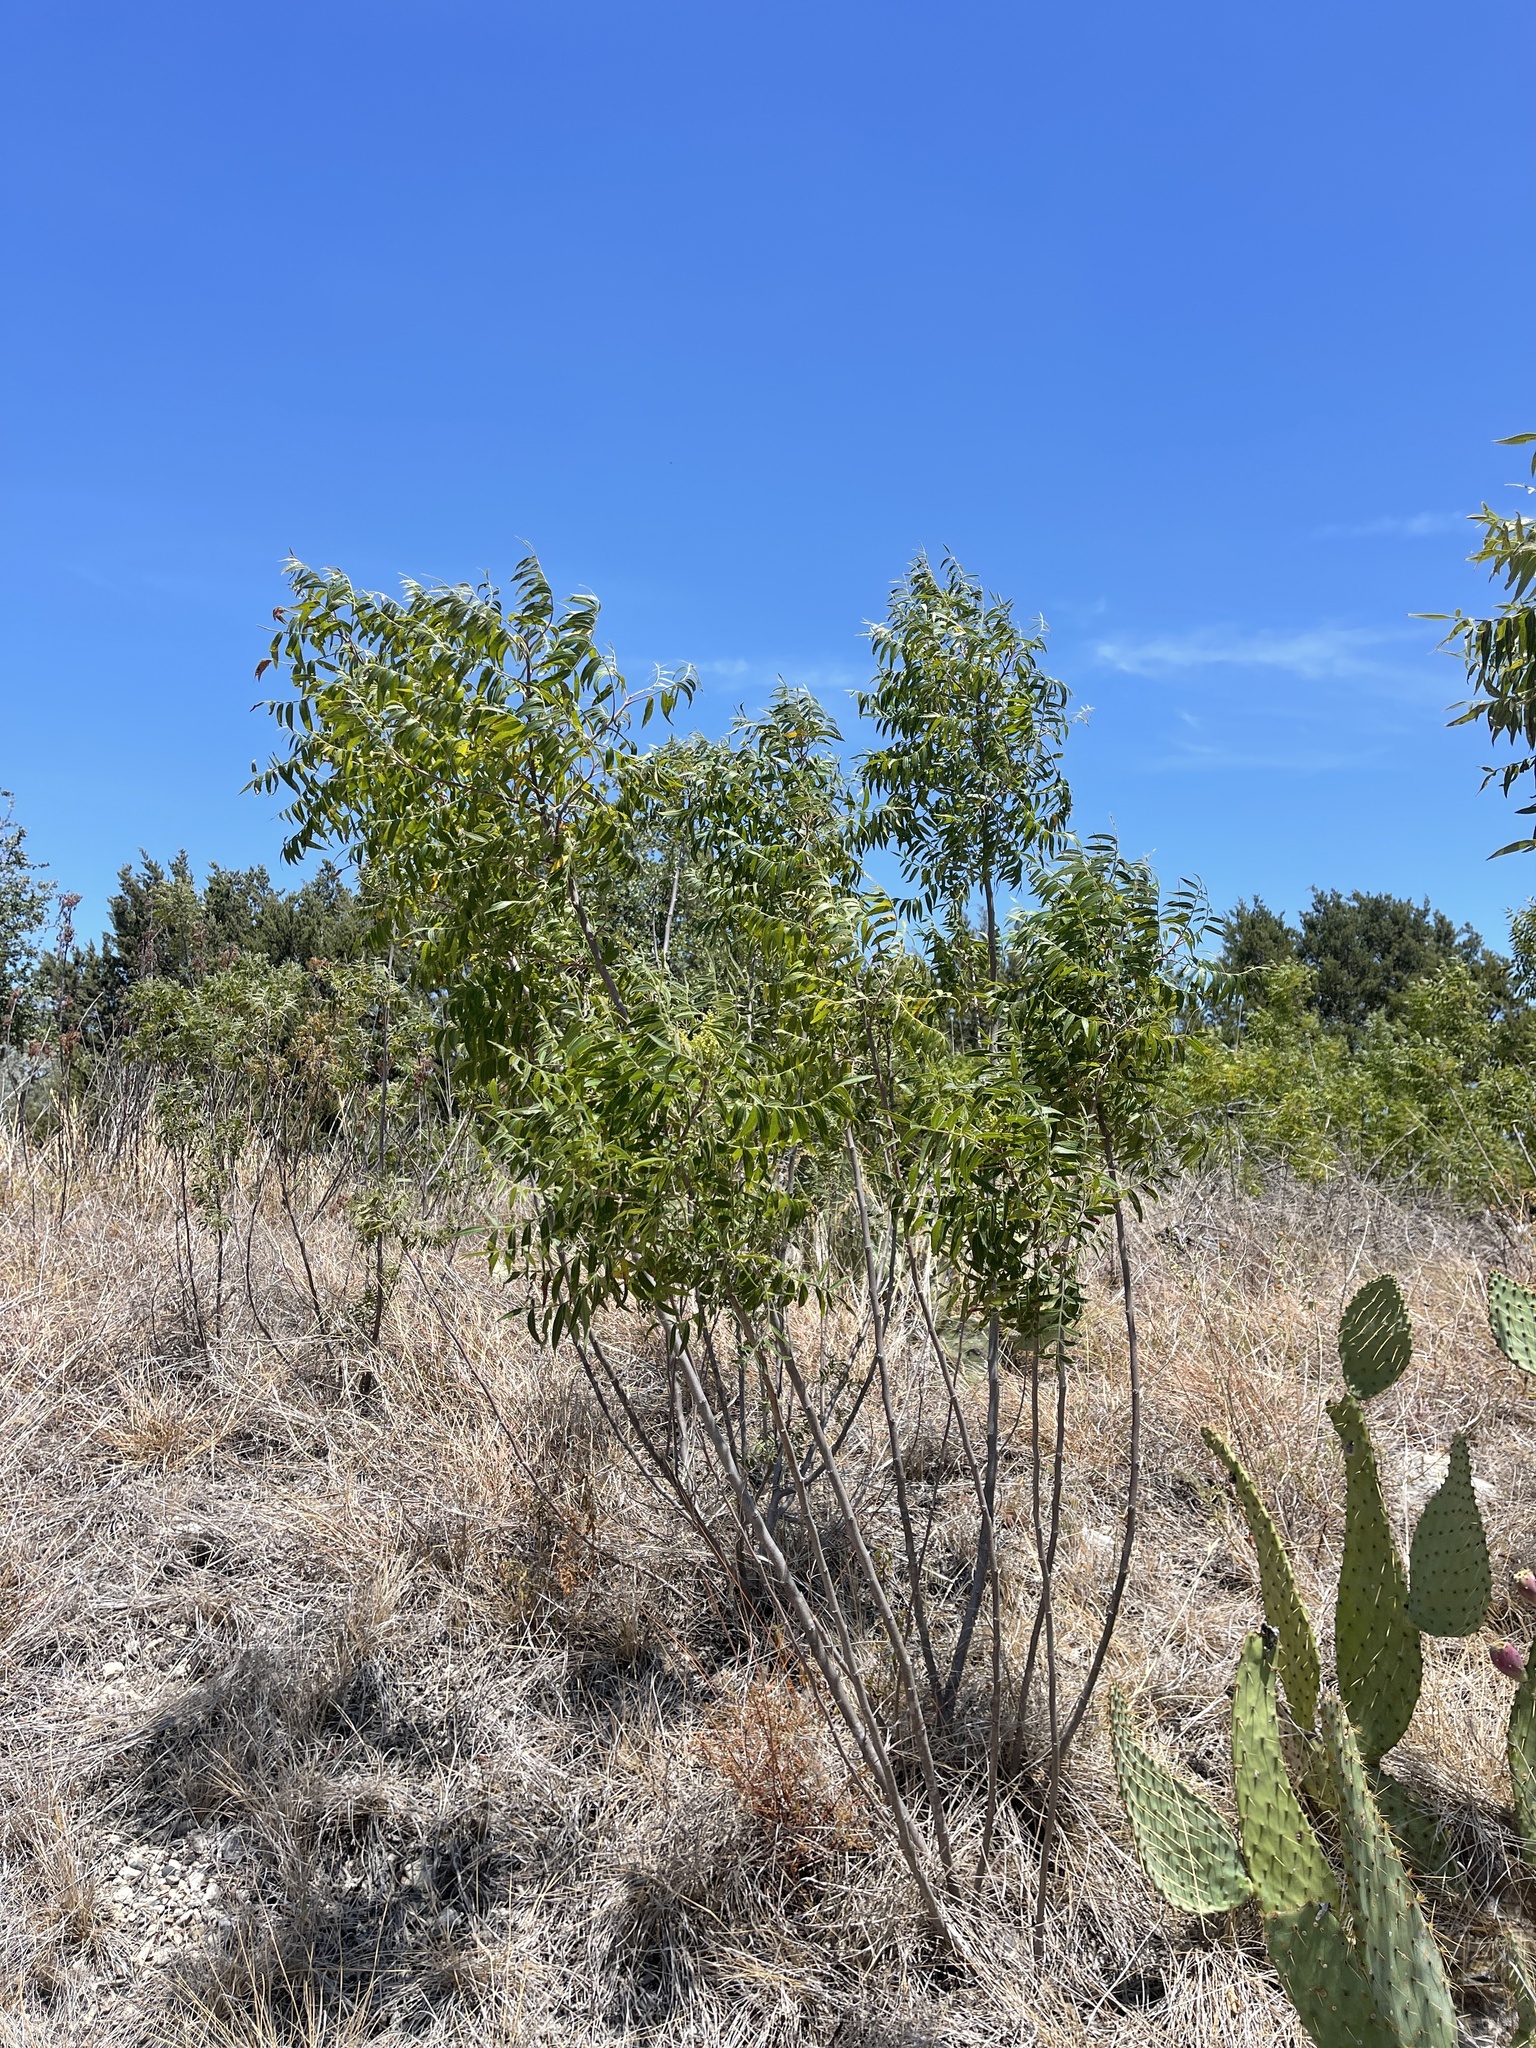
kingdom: Plantae
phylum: Tracheophyta
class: Magnoliopsida
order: Sapindales
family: Anacardiaceae
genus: Rhus
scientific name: Rhus lanceolata
